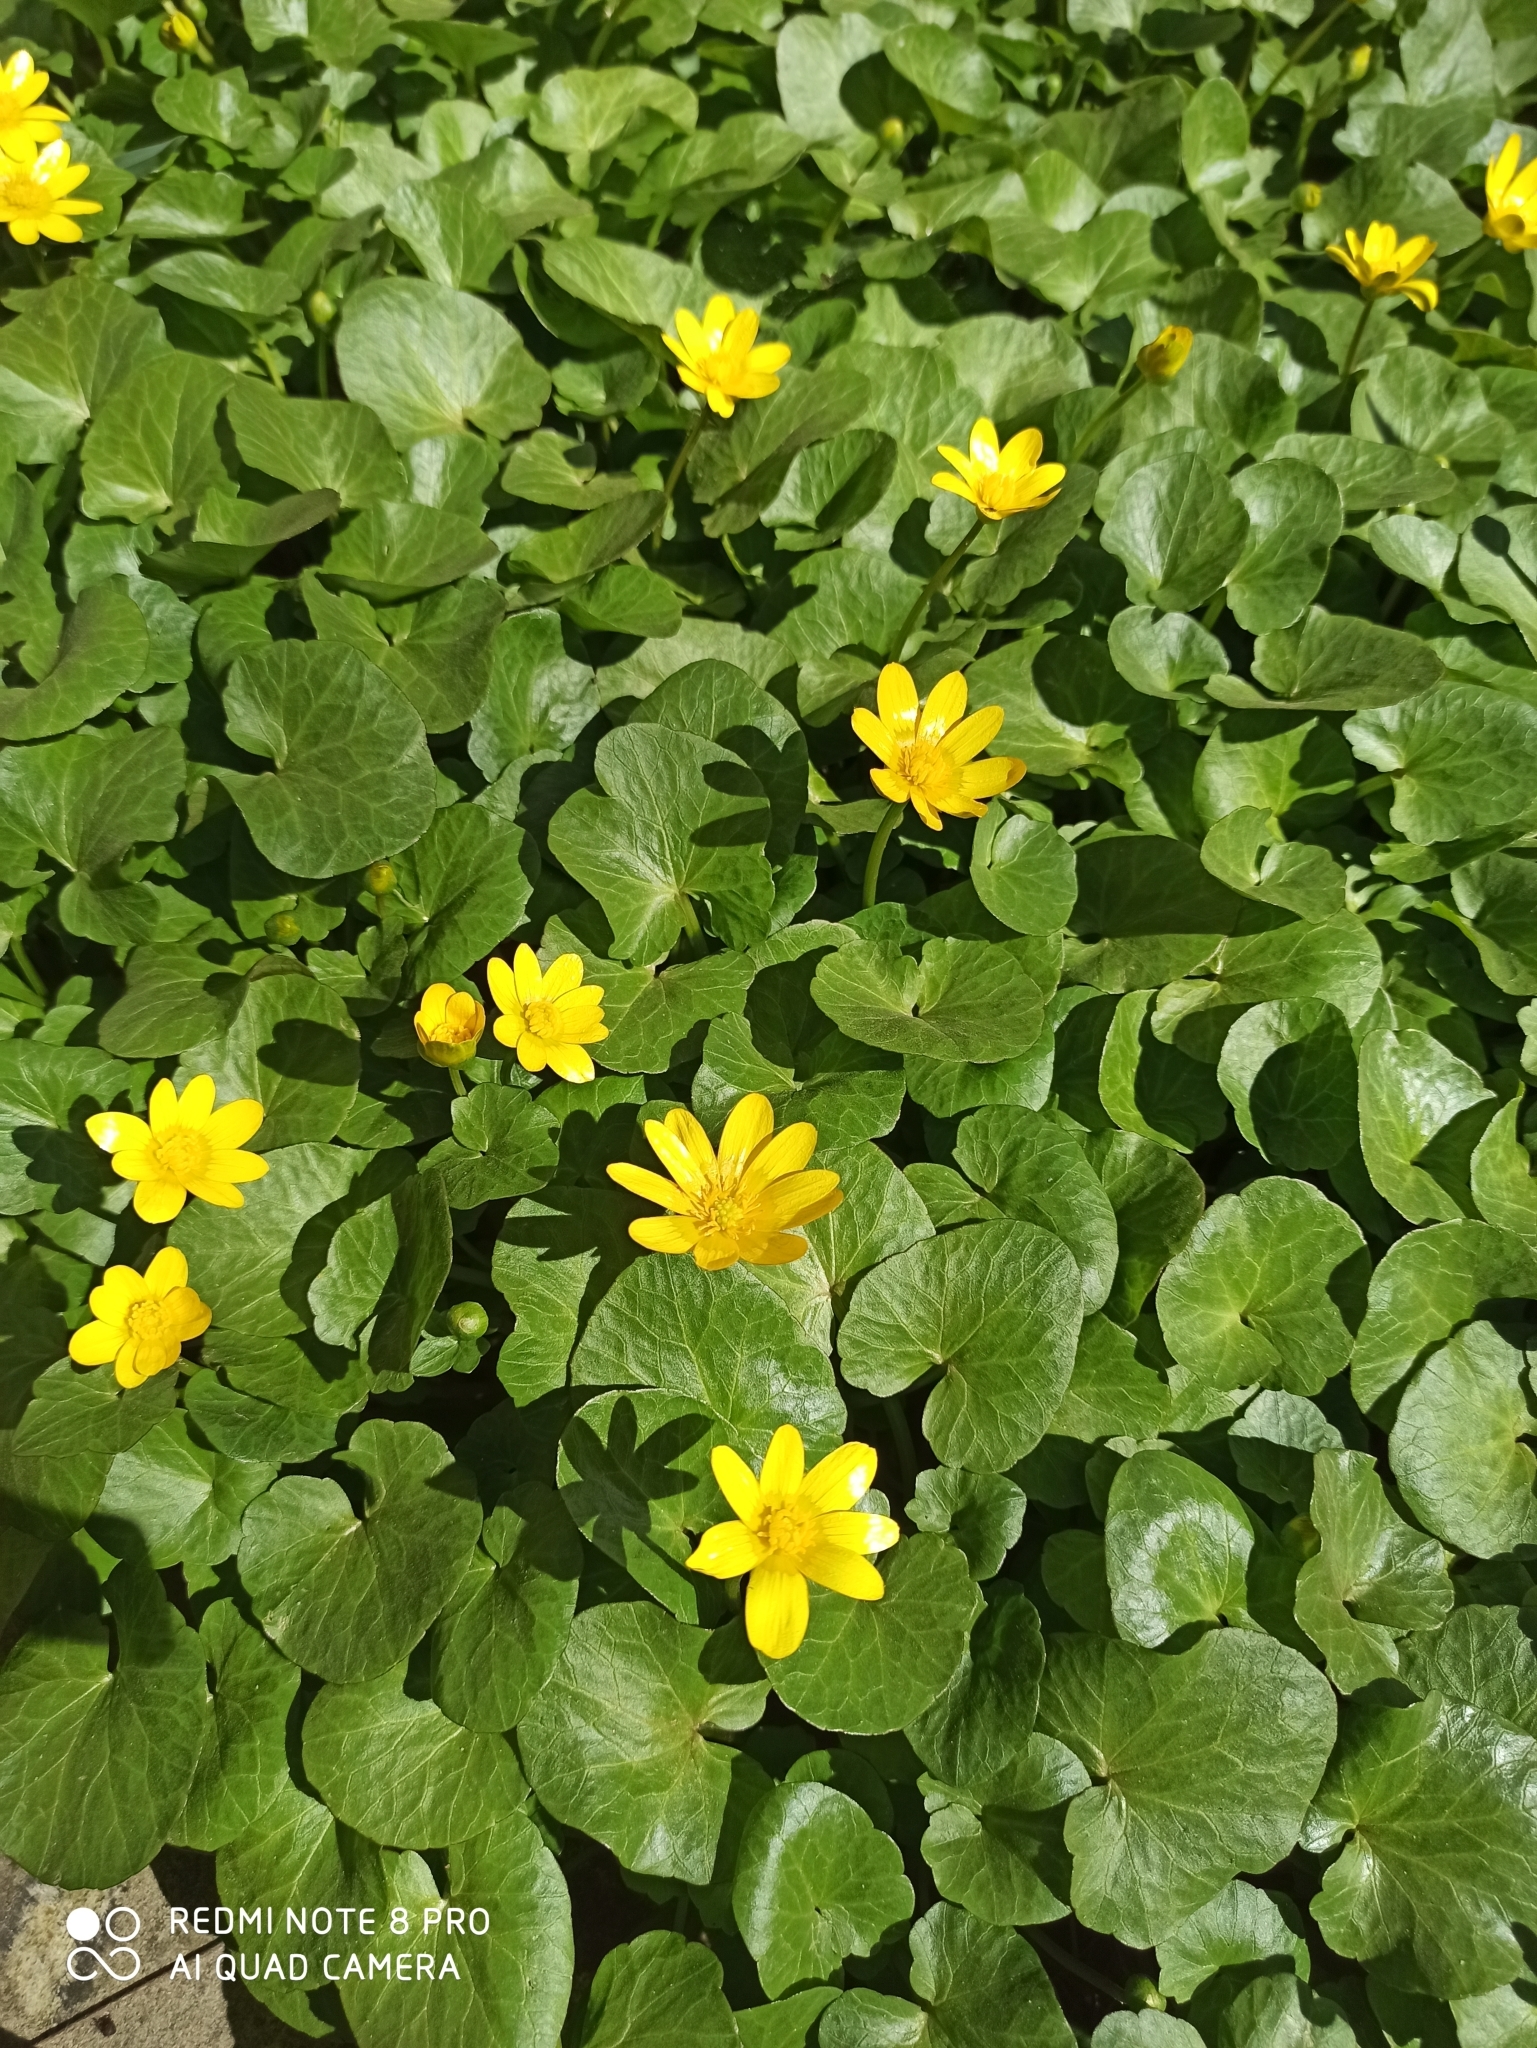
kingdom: Plantae
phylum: Tracheophyta
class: Magnoliopsida
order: Ranunculales
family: Ranunculaceae
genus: Ficaria
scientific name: Ficaria verna
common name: Lesser celandine
